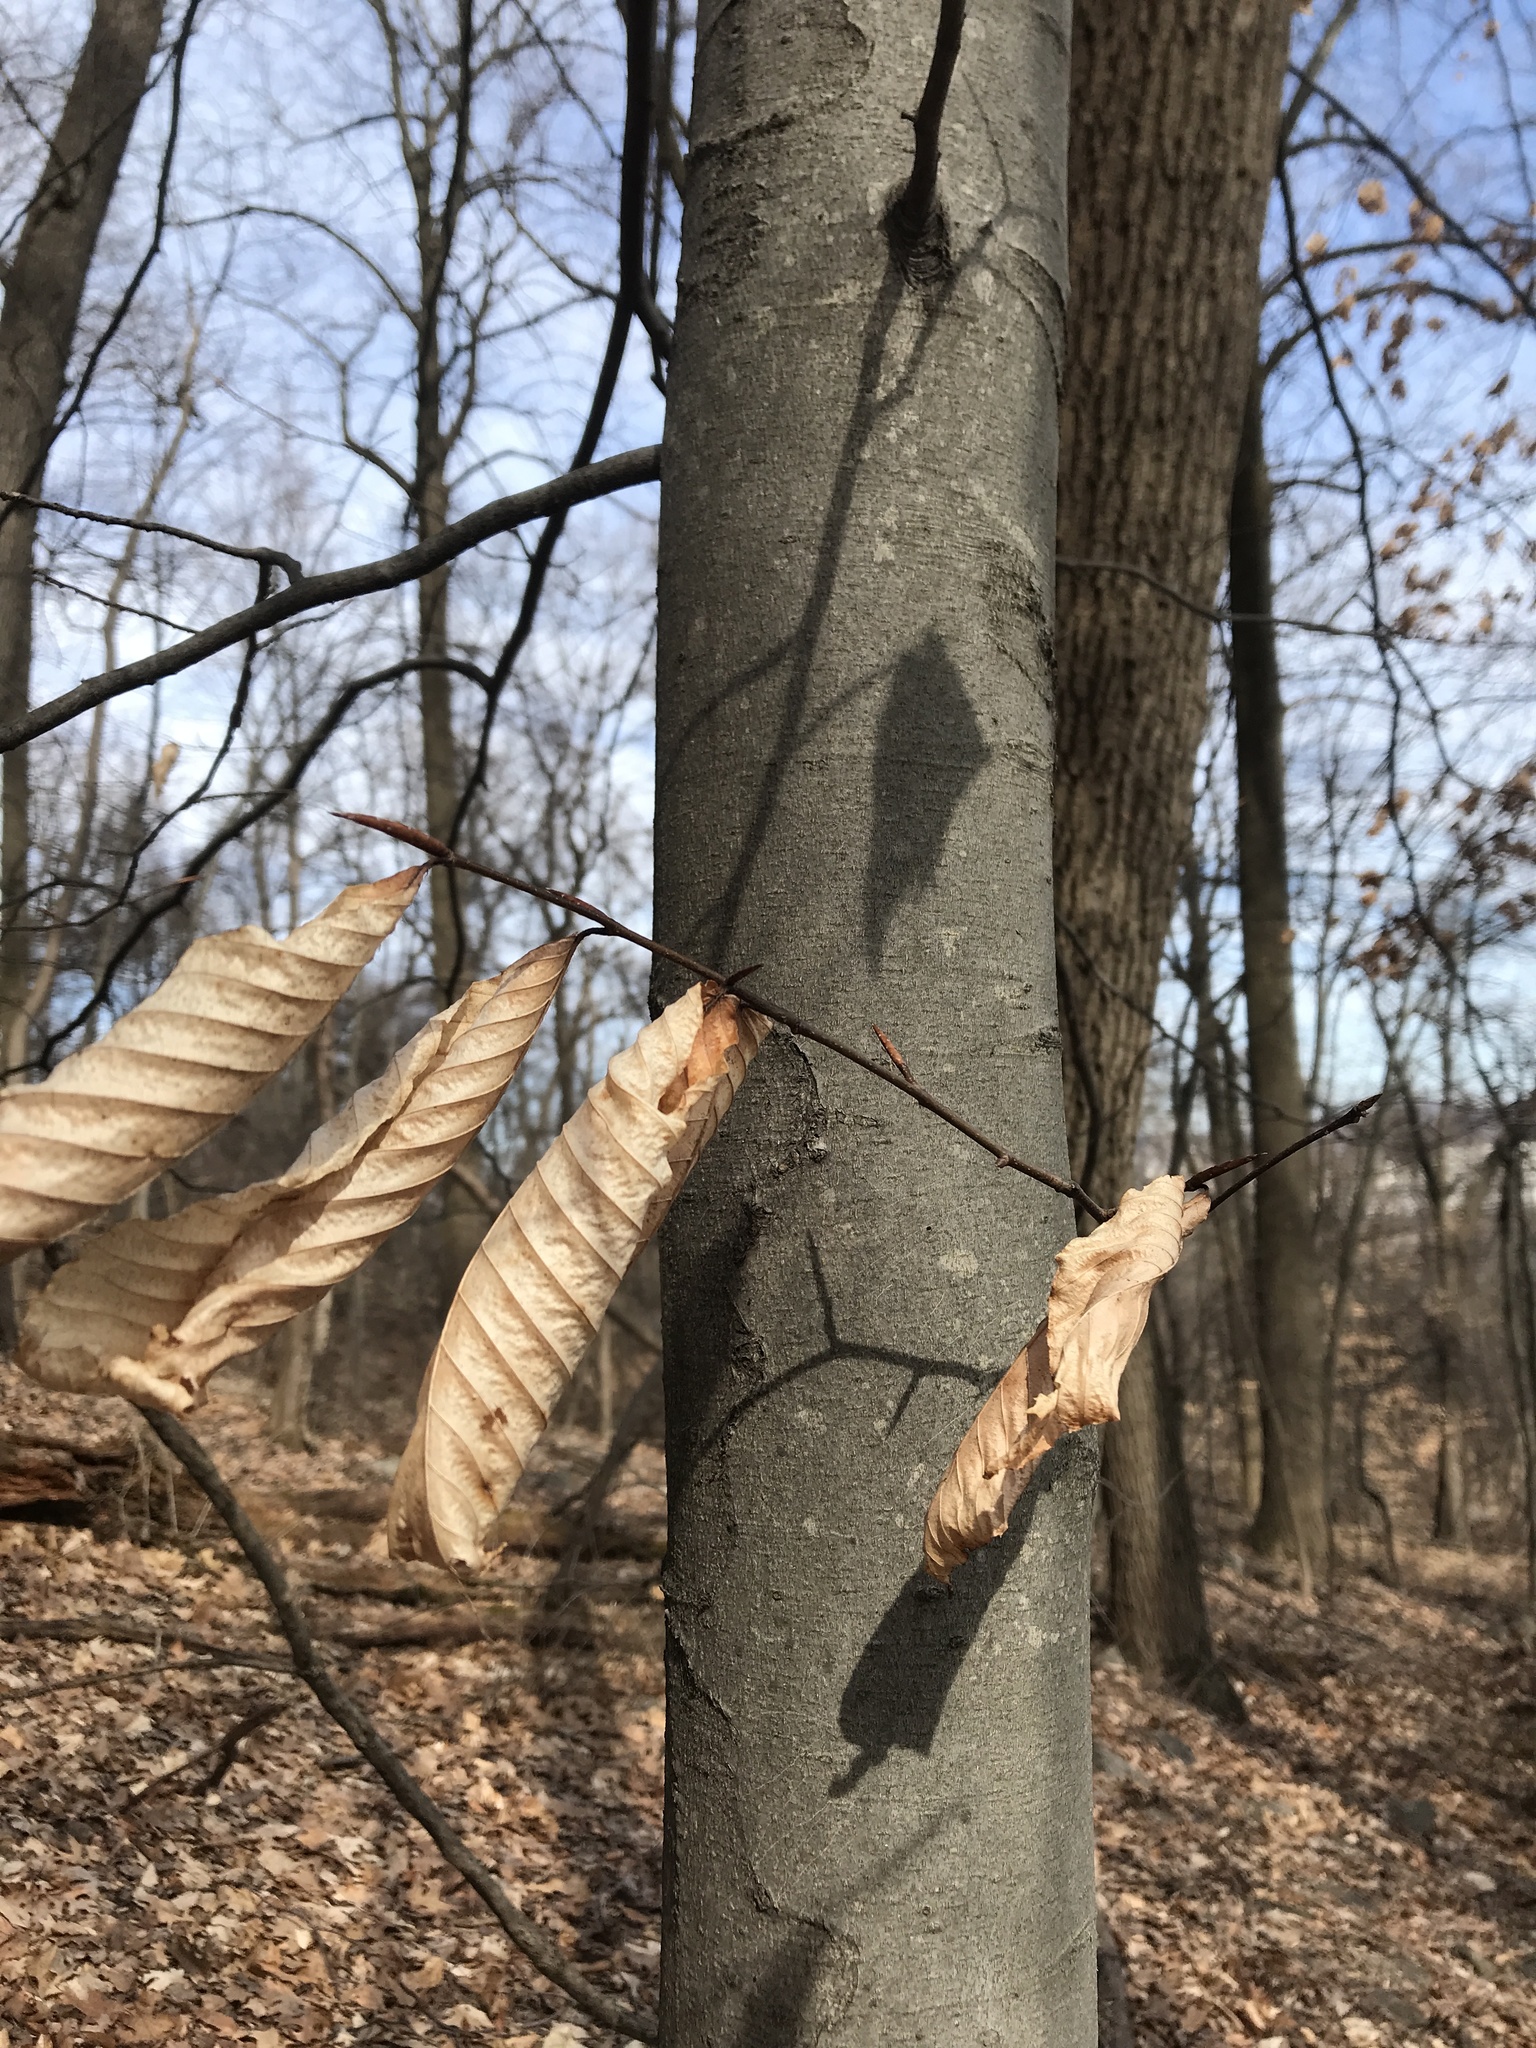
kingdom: Plantae
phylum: Tracheophyta
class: Magnoliopsida
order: Fagales
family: Fagaceae
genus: Fagus
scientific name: Fagus grandifolia
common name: American beech
